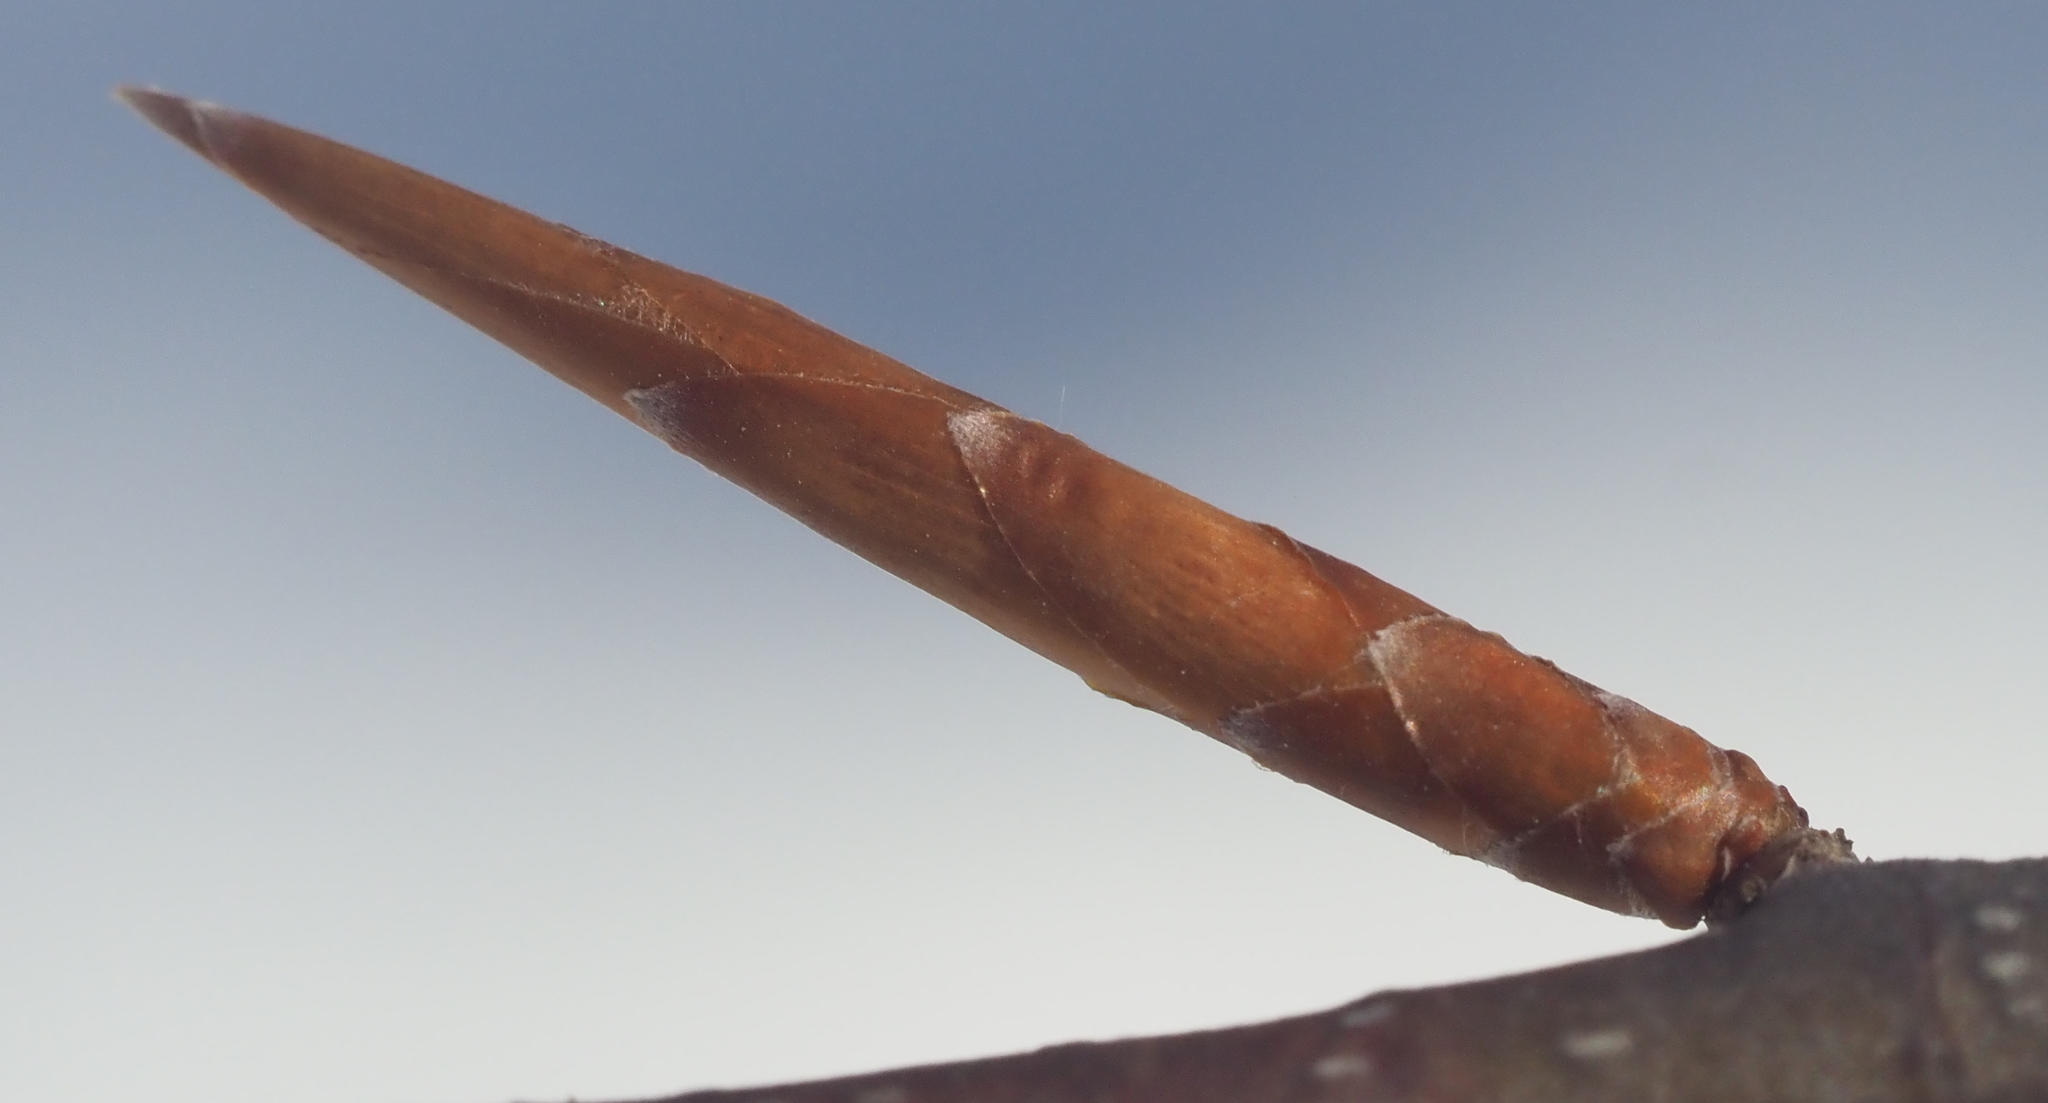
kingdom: Plantae
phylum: Tracheophyta
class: Magnoliopsida
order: Fagales
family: Fagaceae
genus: Fagus
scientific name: Fagus grandifolia
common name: American beech
